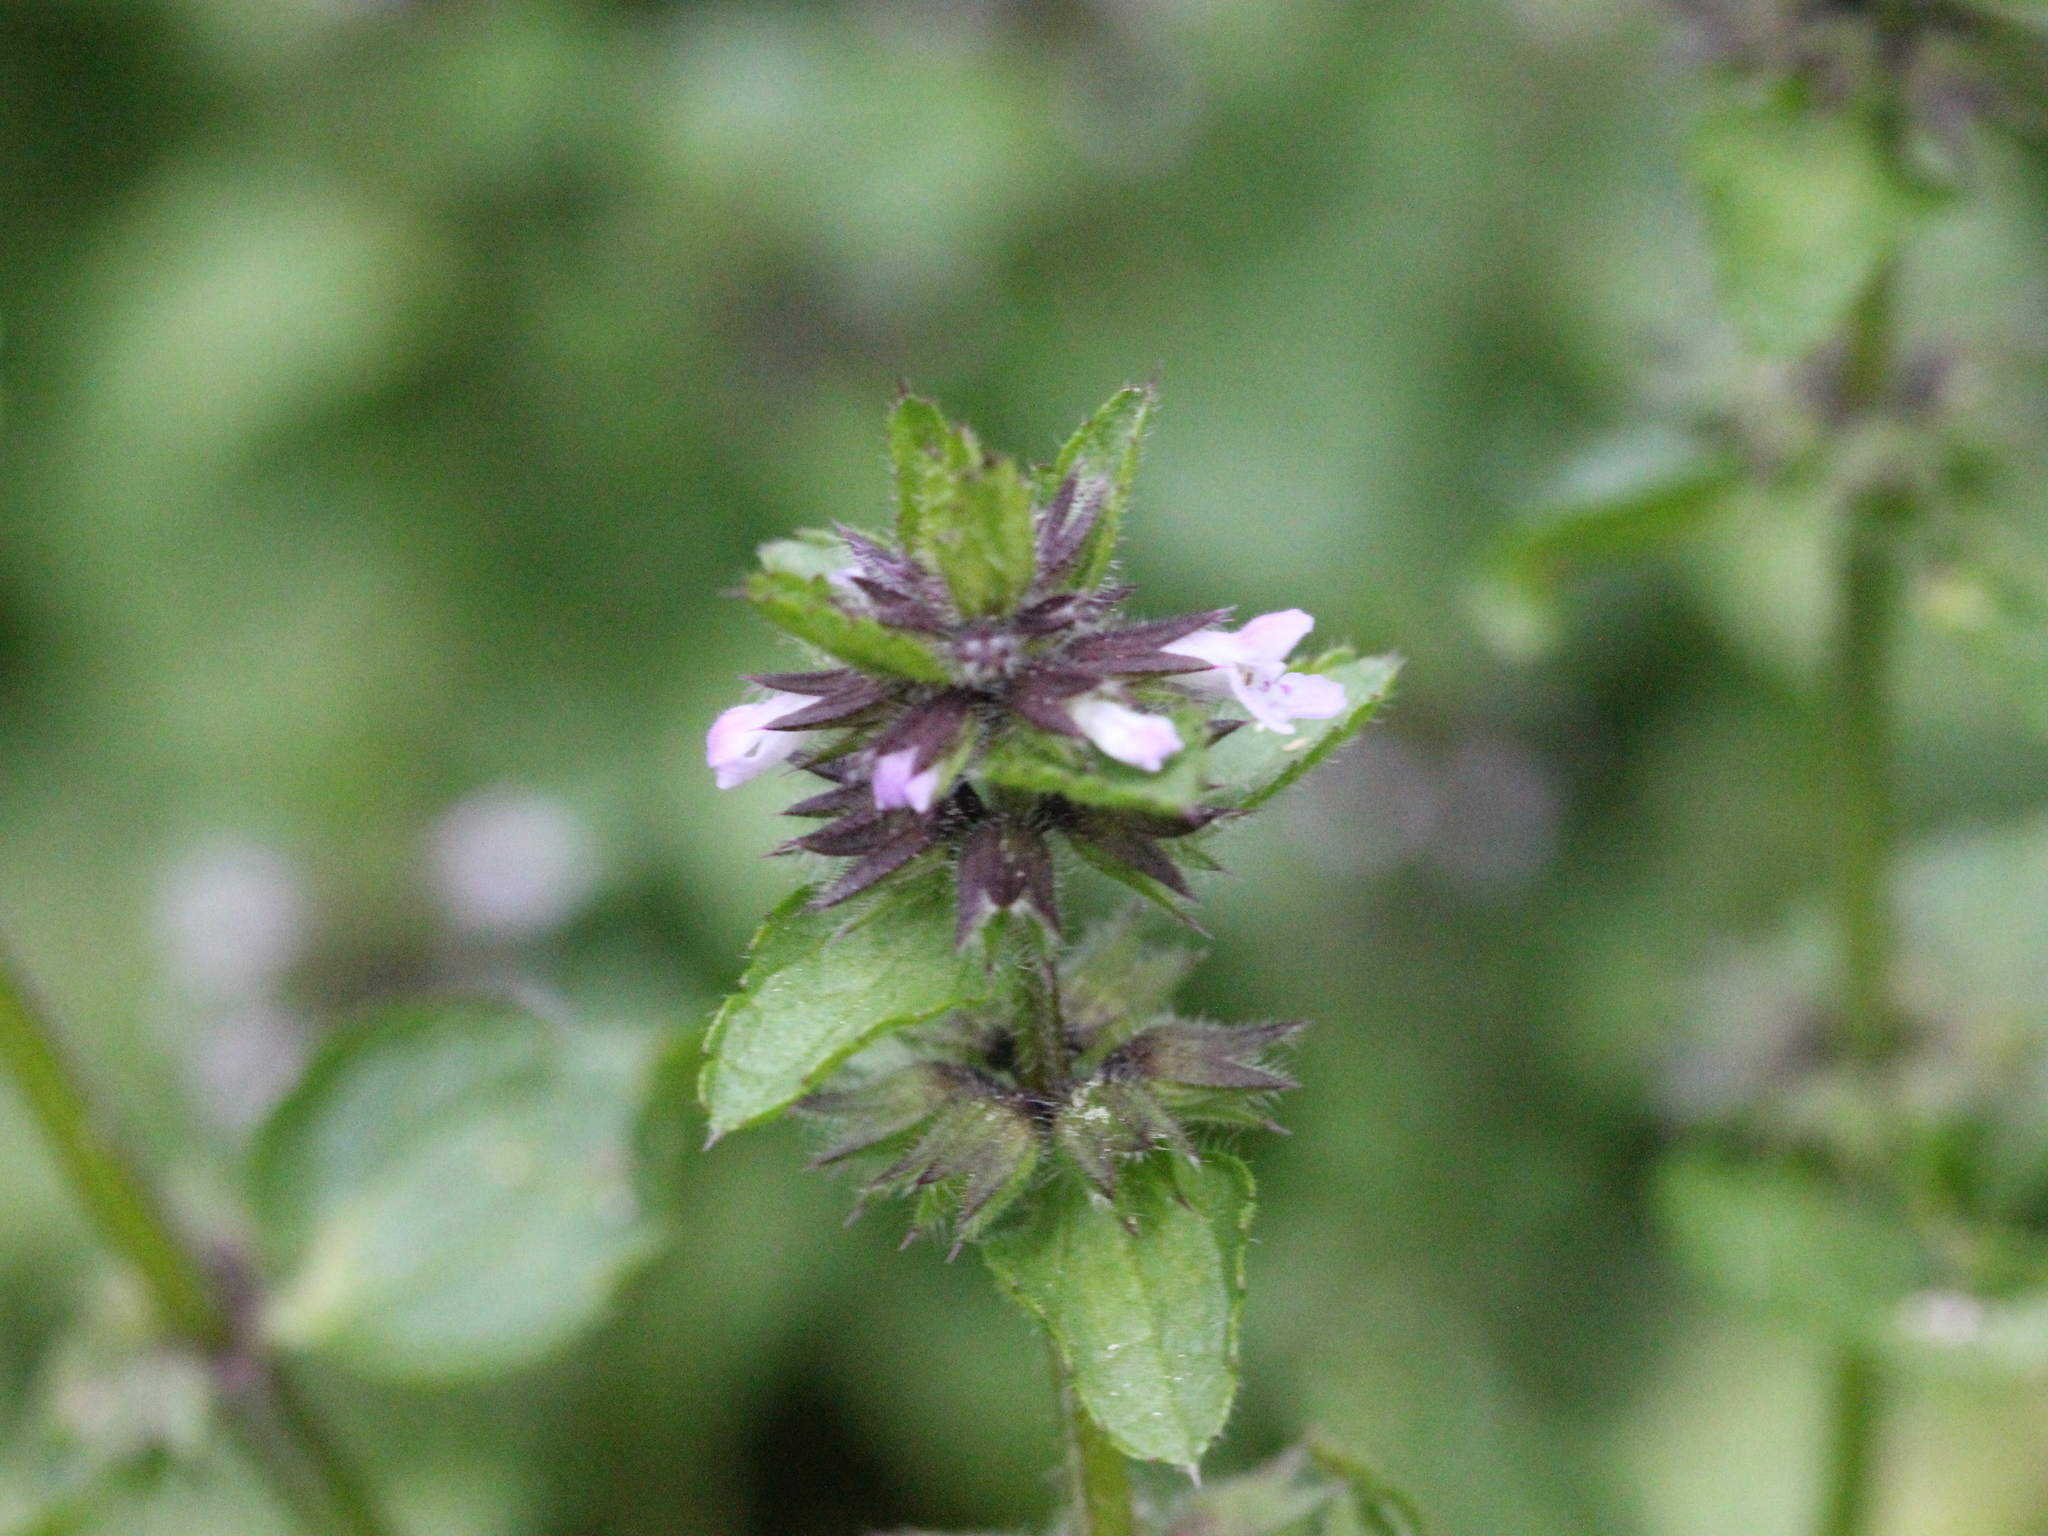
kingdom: Plantae
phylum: Tracheophyta
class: Magnoliopsida
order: Lamiales
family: Lamiaceae
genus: Stachys
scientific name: Stachys arvensis
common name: Field woundwort
